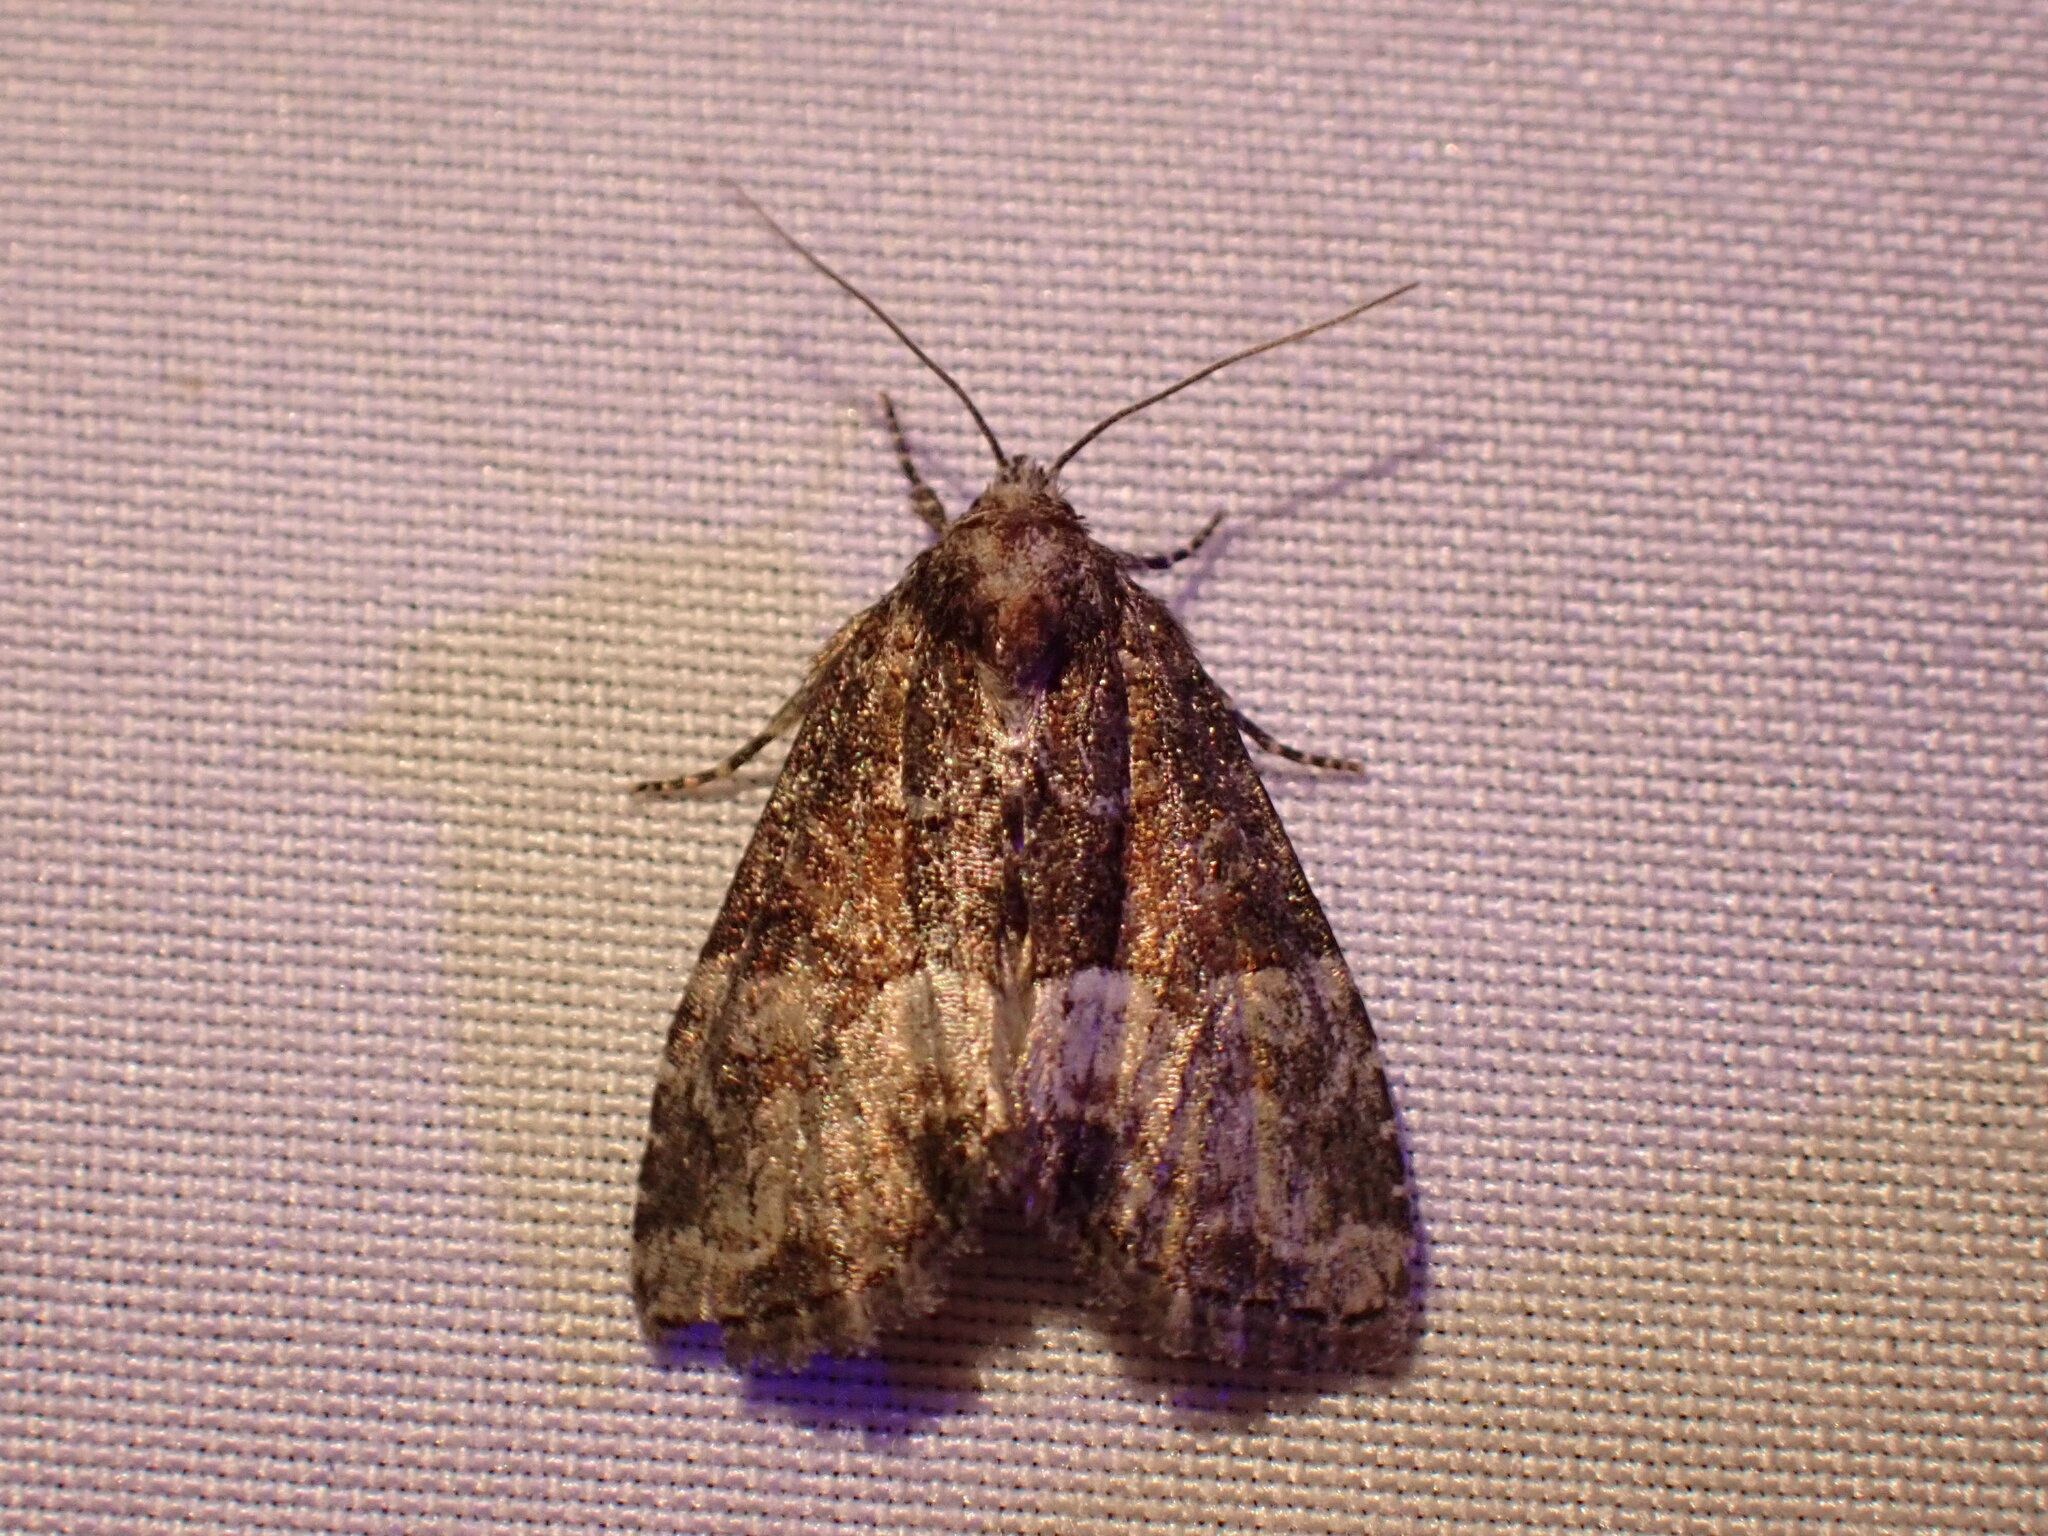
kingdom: Animalia
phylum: Arthropoda
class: Insecta
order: Lepidoptera
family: Noctuidae
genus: Neoligia
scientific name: Neoligia subjuncta
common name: Connected brocade
